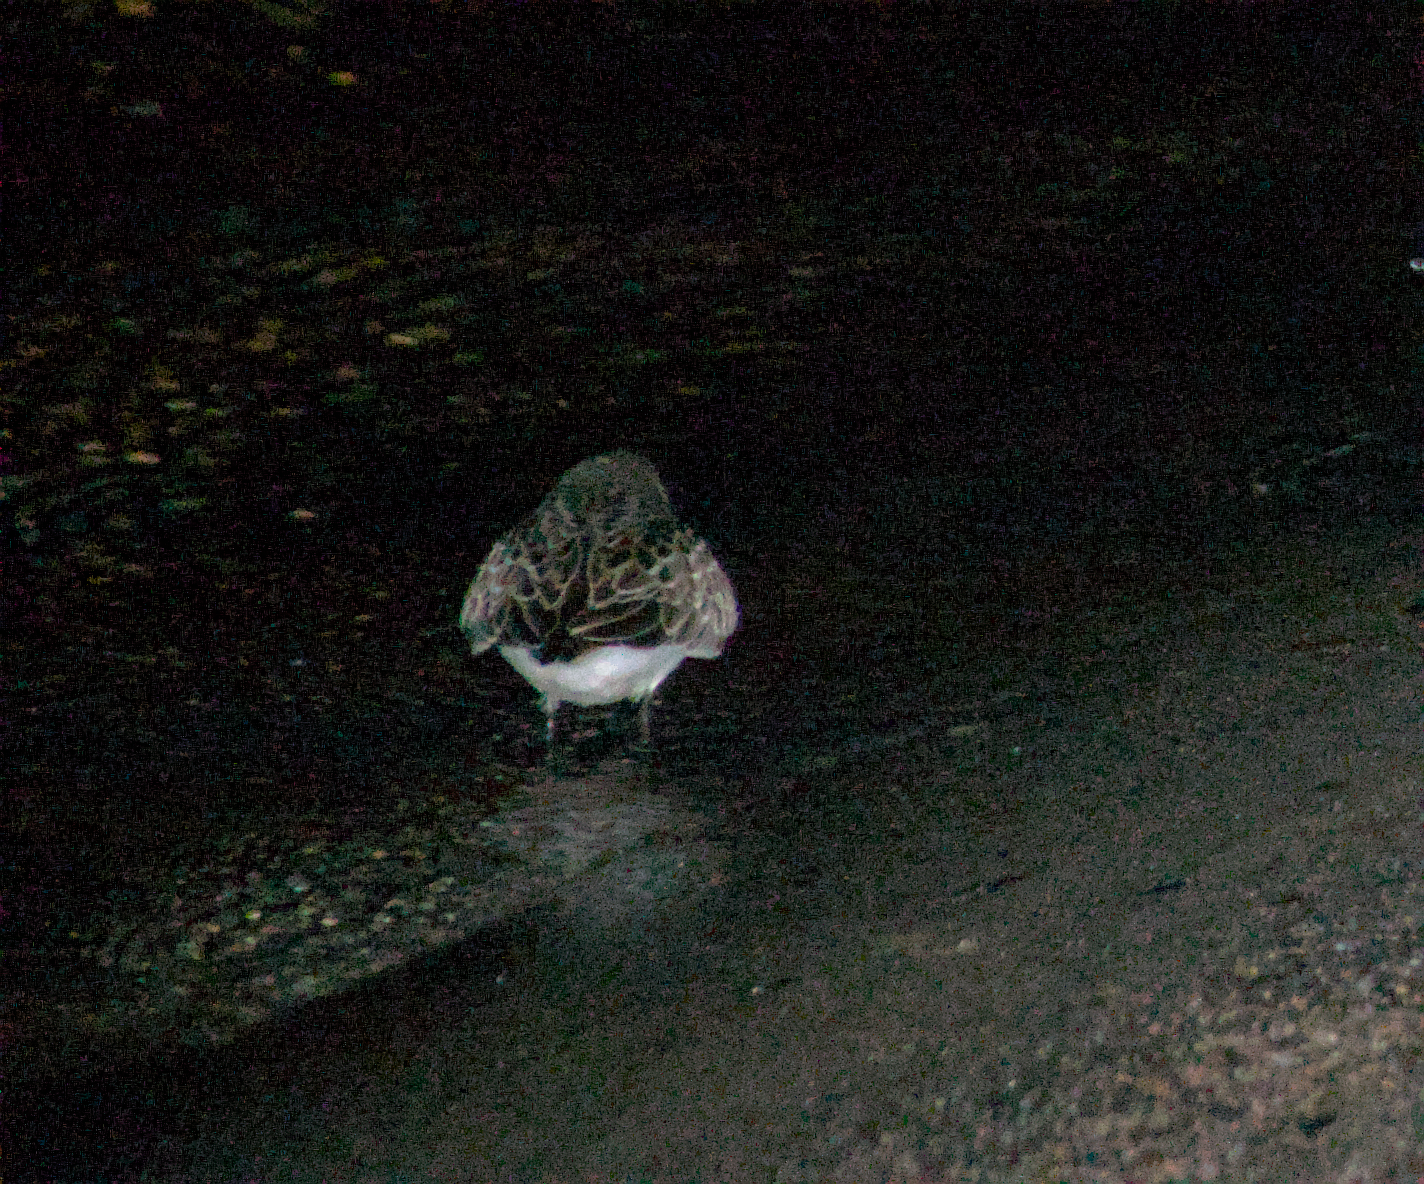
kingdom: Animalia
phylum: Chordata
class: Aves
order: Charadriiformes
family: Scolopacidae
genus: Calidris
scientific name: Calidris pusilla
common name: Semipalmated sandpiper
